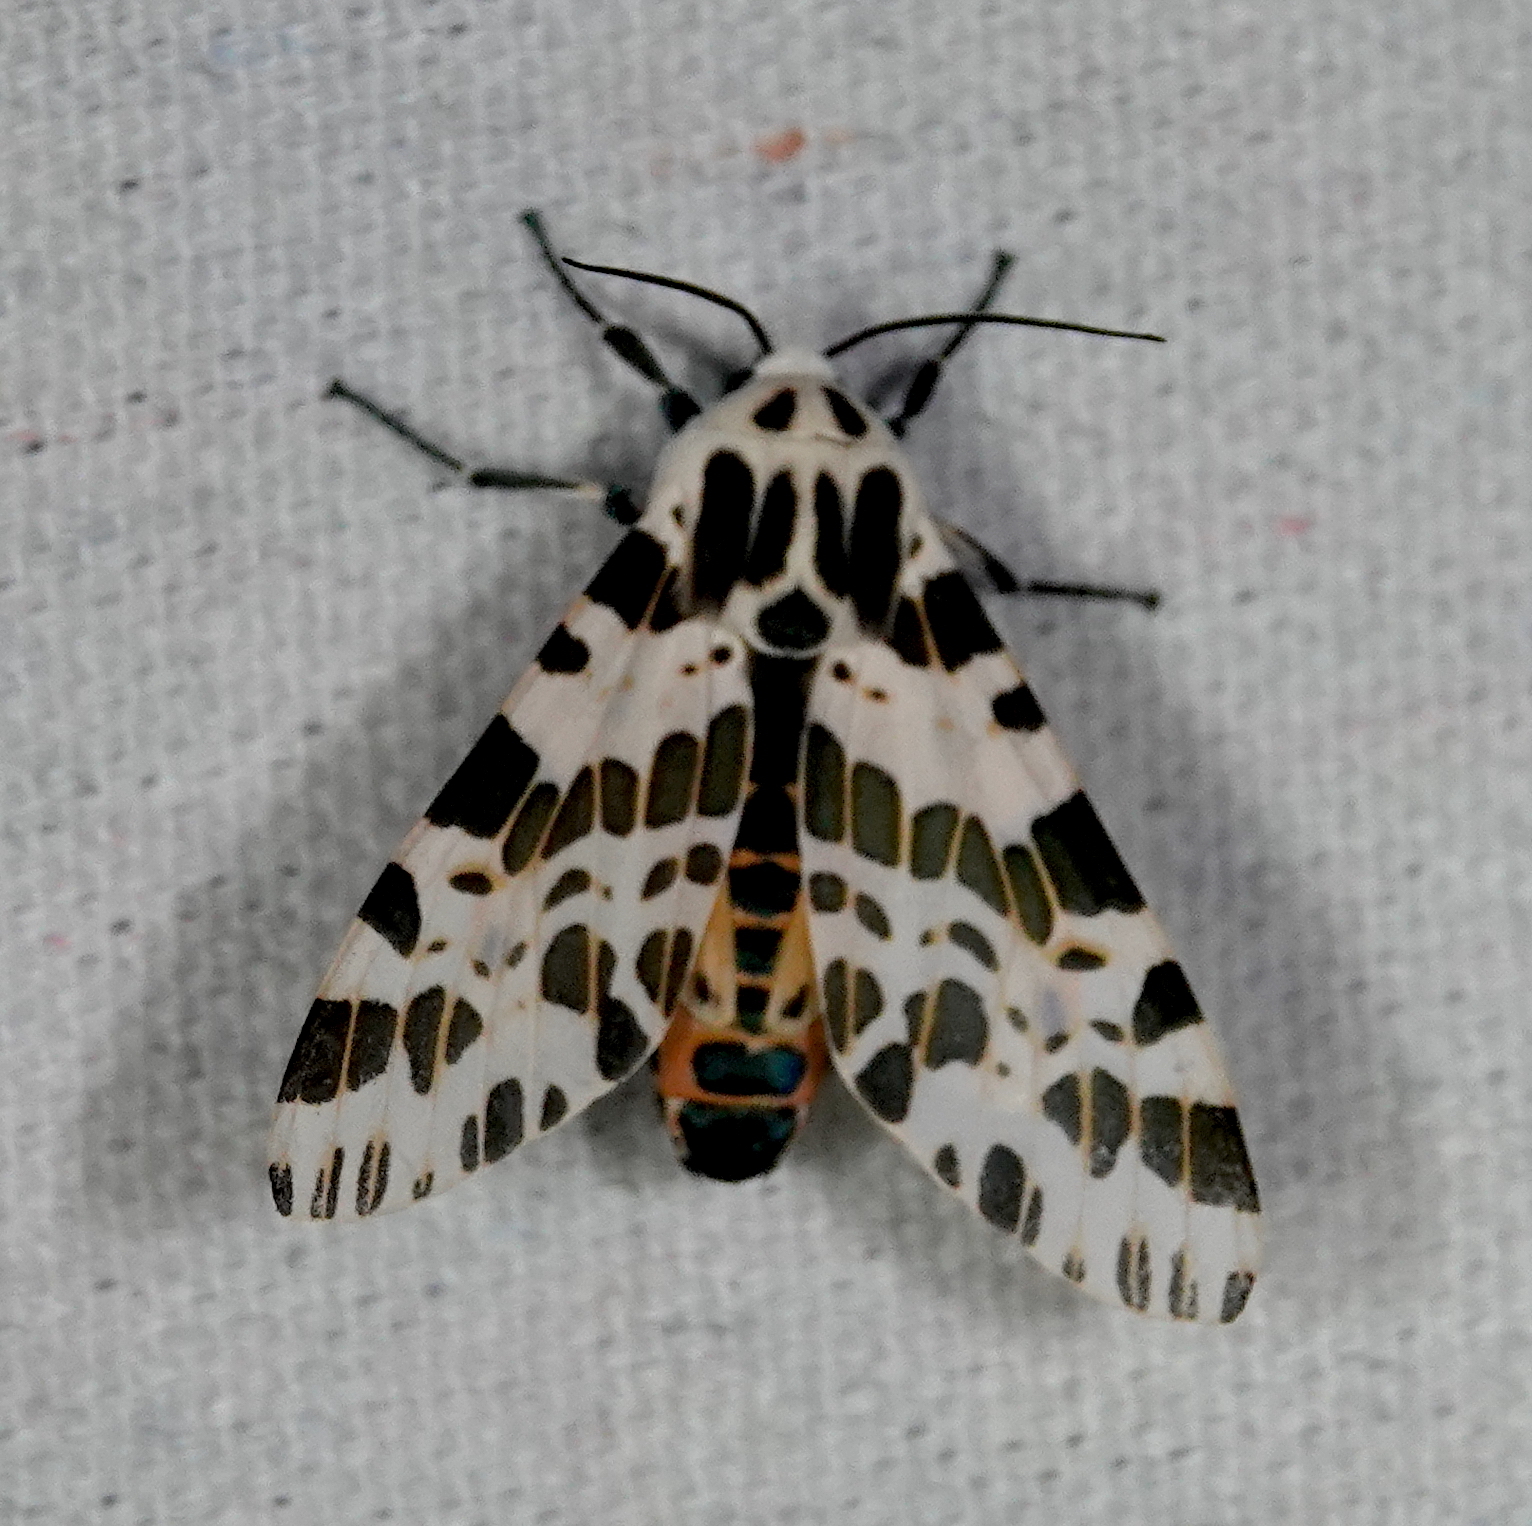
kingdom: Animalia
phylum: Arthropoda
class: Insecta
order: Lepidoptera
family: Erebidae
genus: Hypercompe
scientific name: Hypercompe laeta
